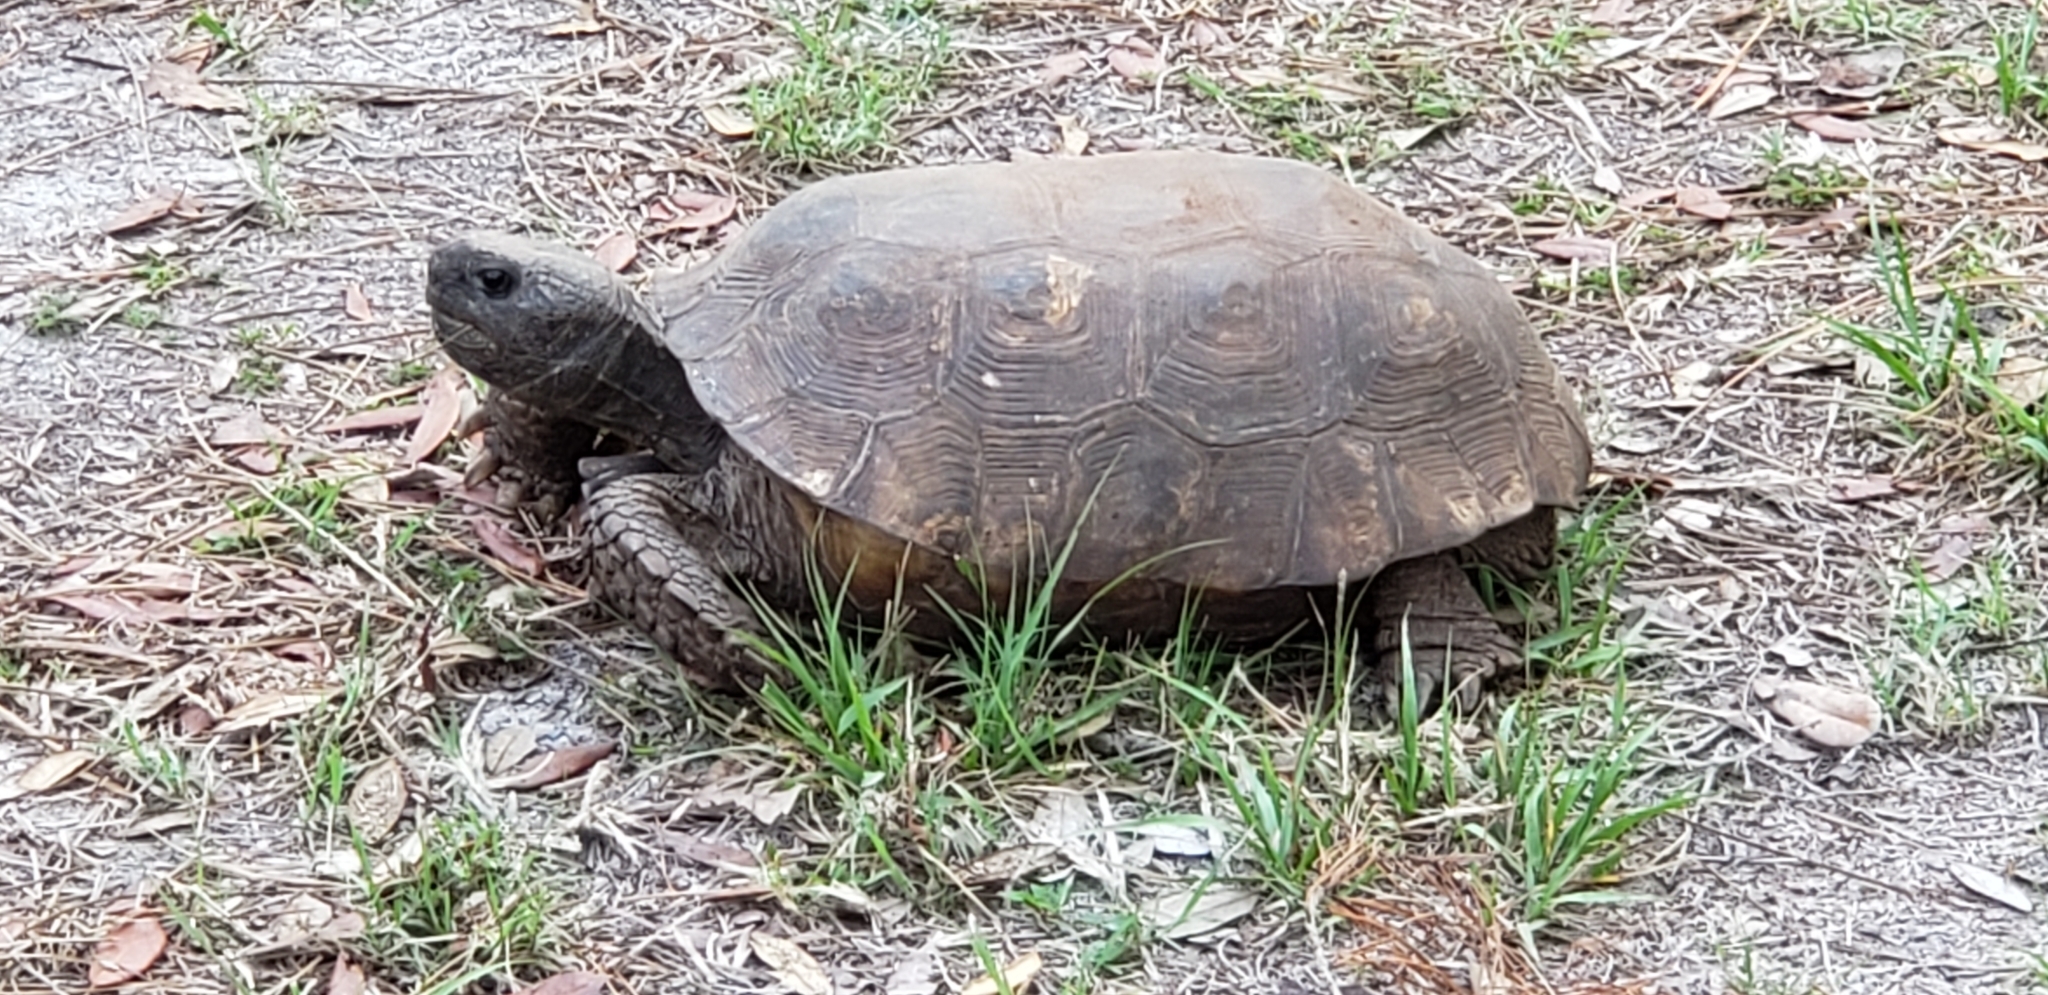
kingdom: Animalia
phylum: Chordata
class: Testudines
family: Testudinidae
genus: Gopherus
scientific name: Gopherus polyphemus
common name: Florida gopher tortoise
